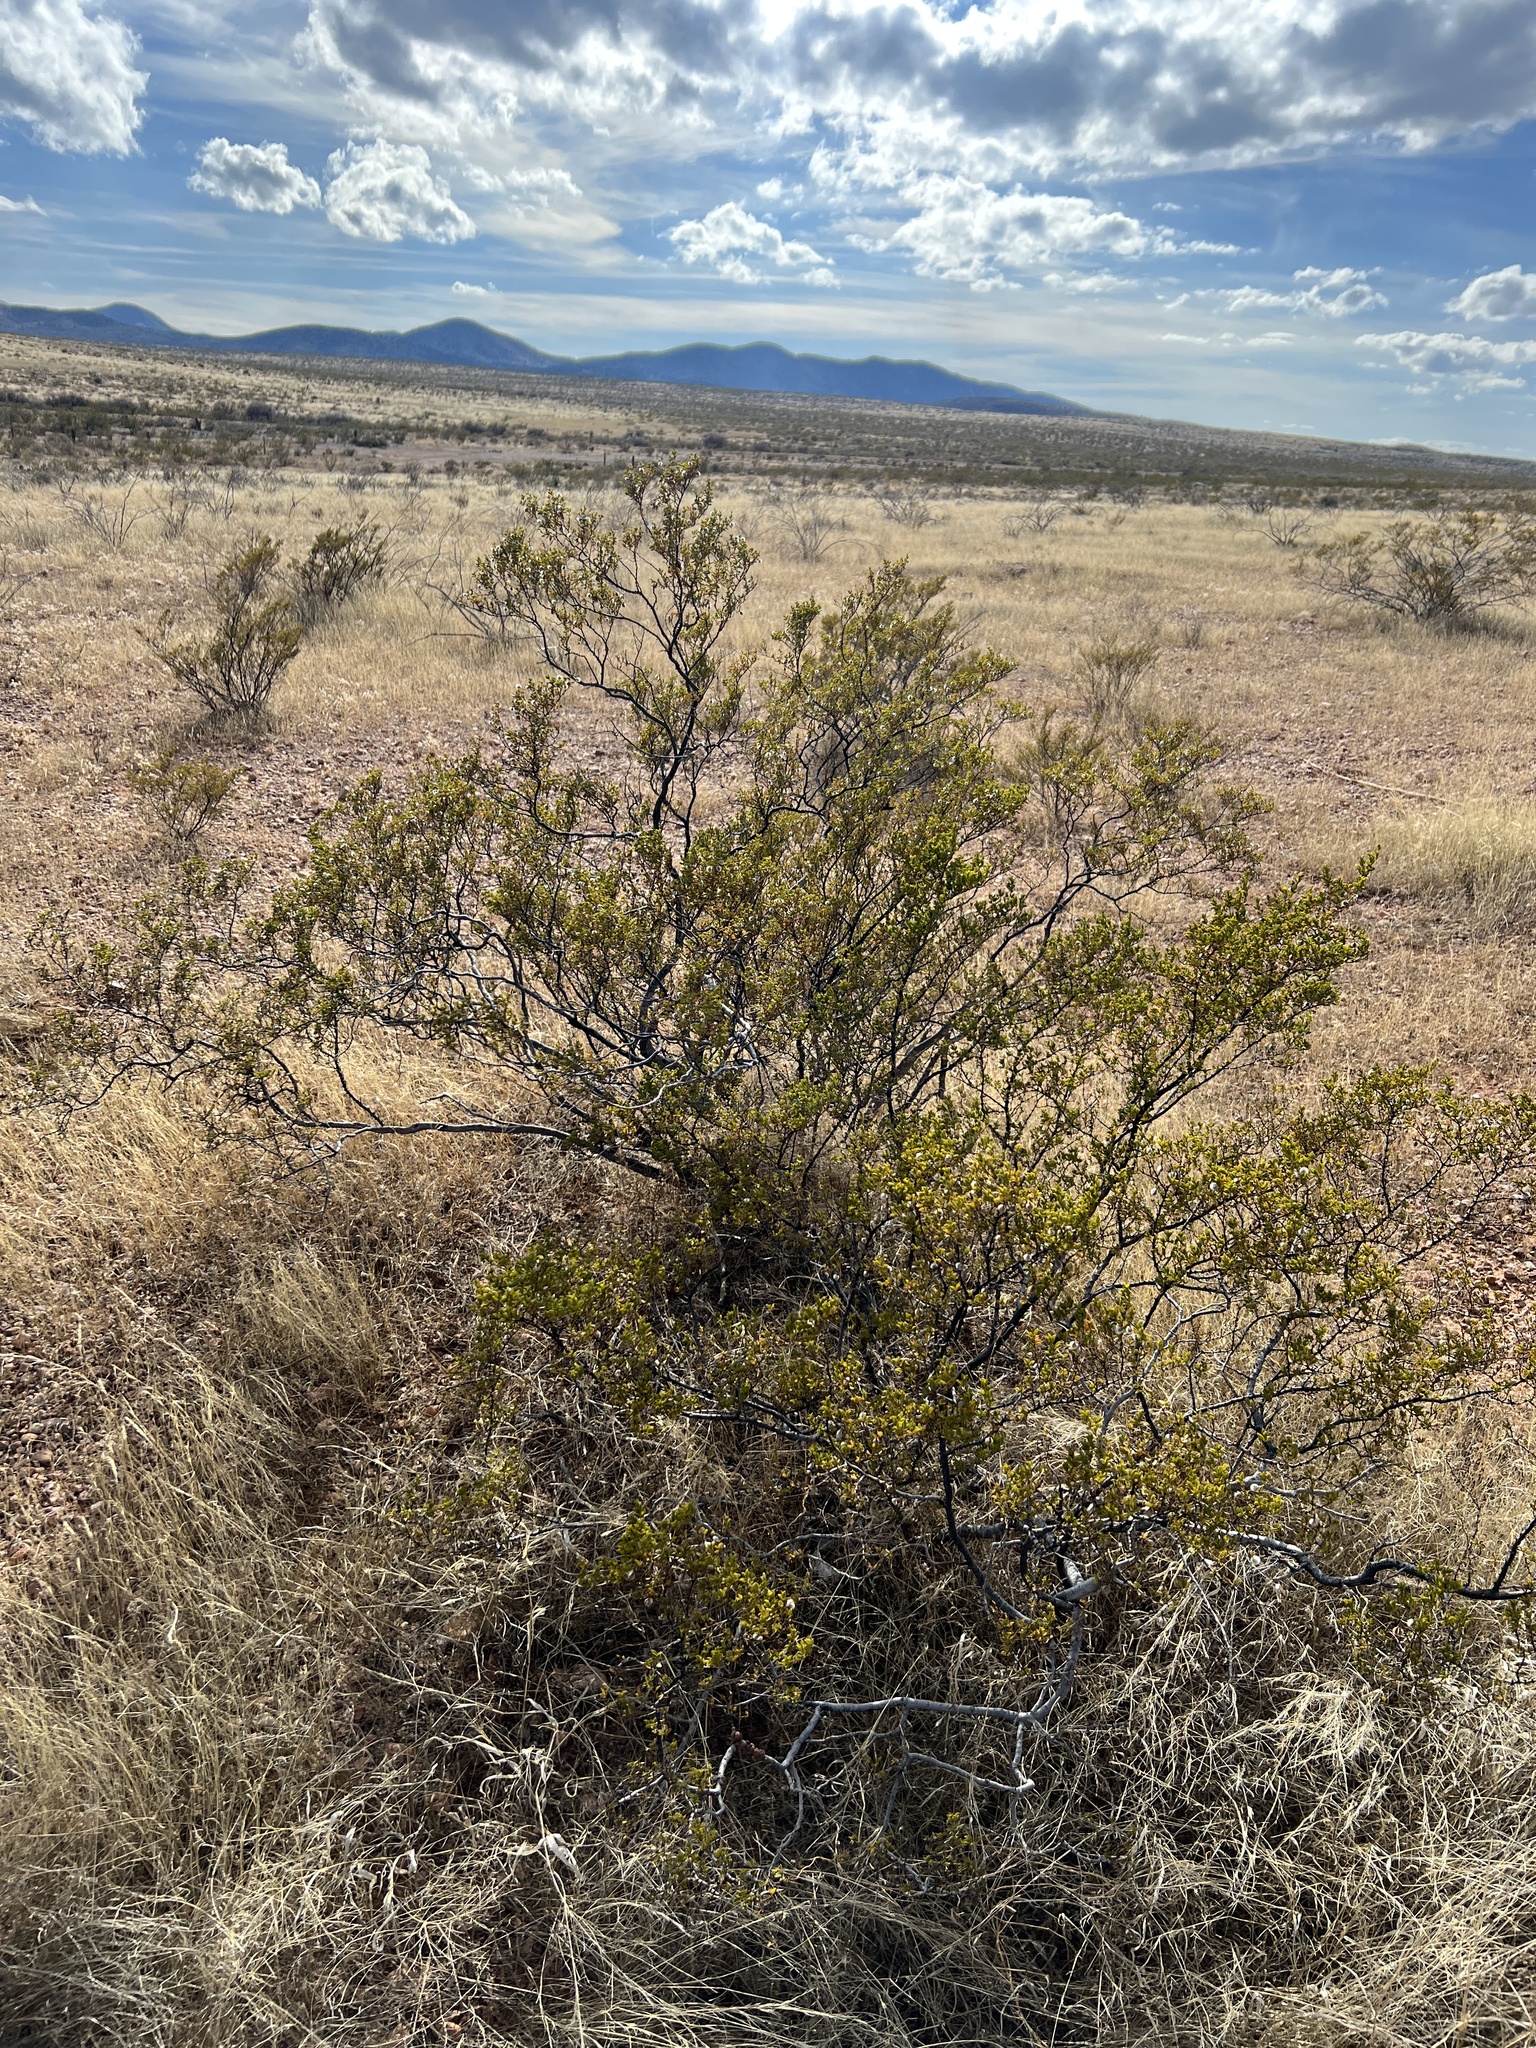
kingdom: Plantae
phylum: Tracheophyta
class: Magnoliopsida
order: Zygophyllales
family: Zygophyllaceae
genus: Larrea
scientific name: Larrea tridentata
